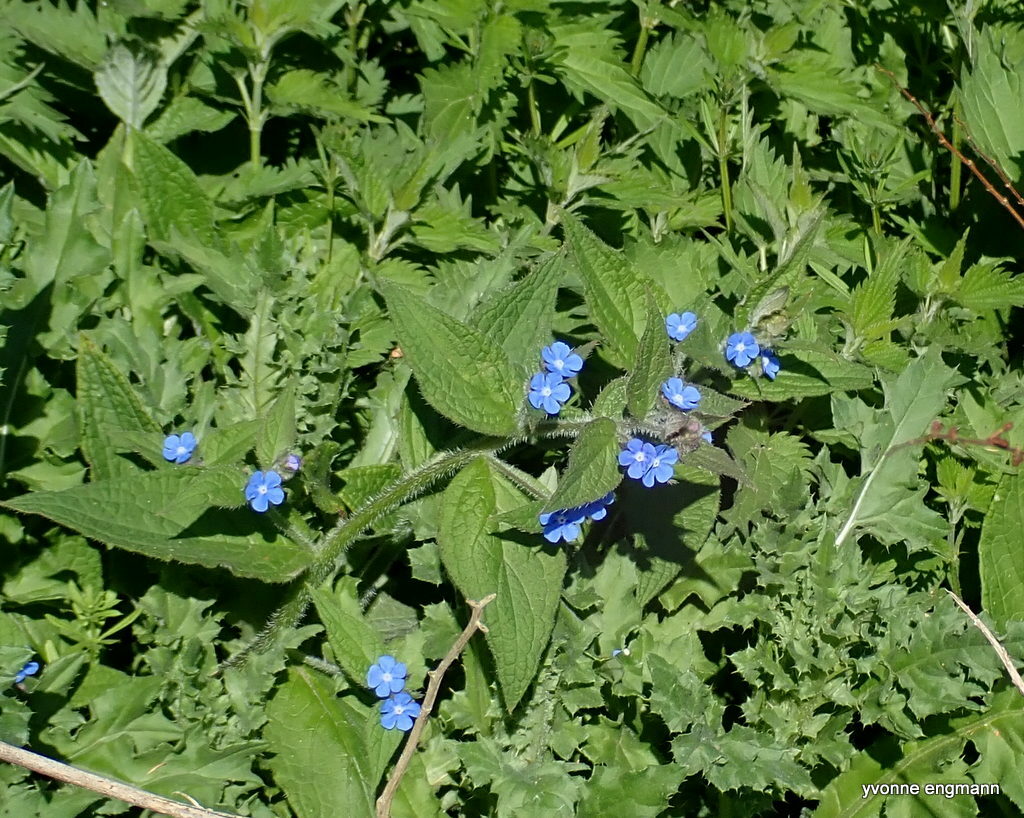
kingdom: Plantae
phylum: Tracheophyta
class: Magnoliopsida
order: Boraginales
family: Boraginaceae
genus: Pentaglottis
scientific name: Pentaglottis sempervirens
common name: Green alkanet
